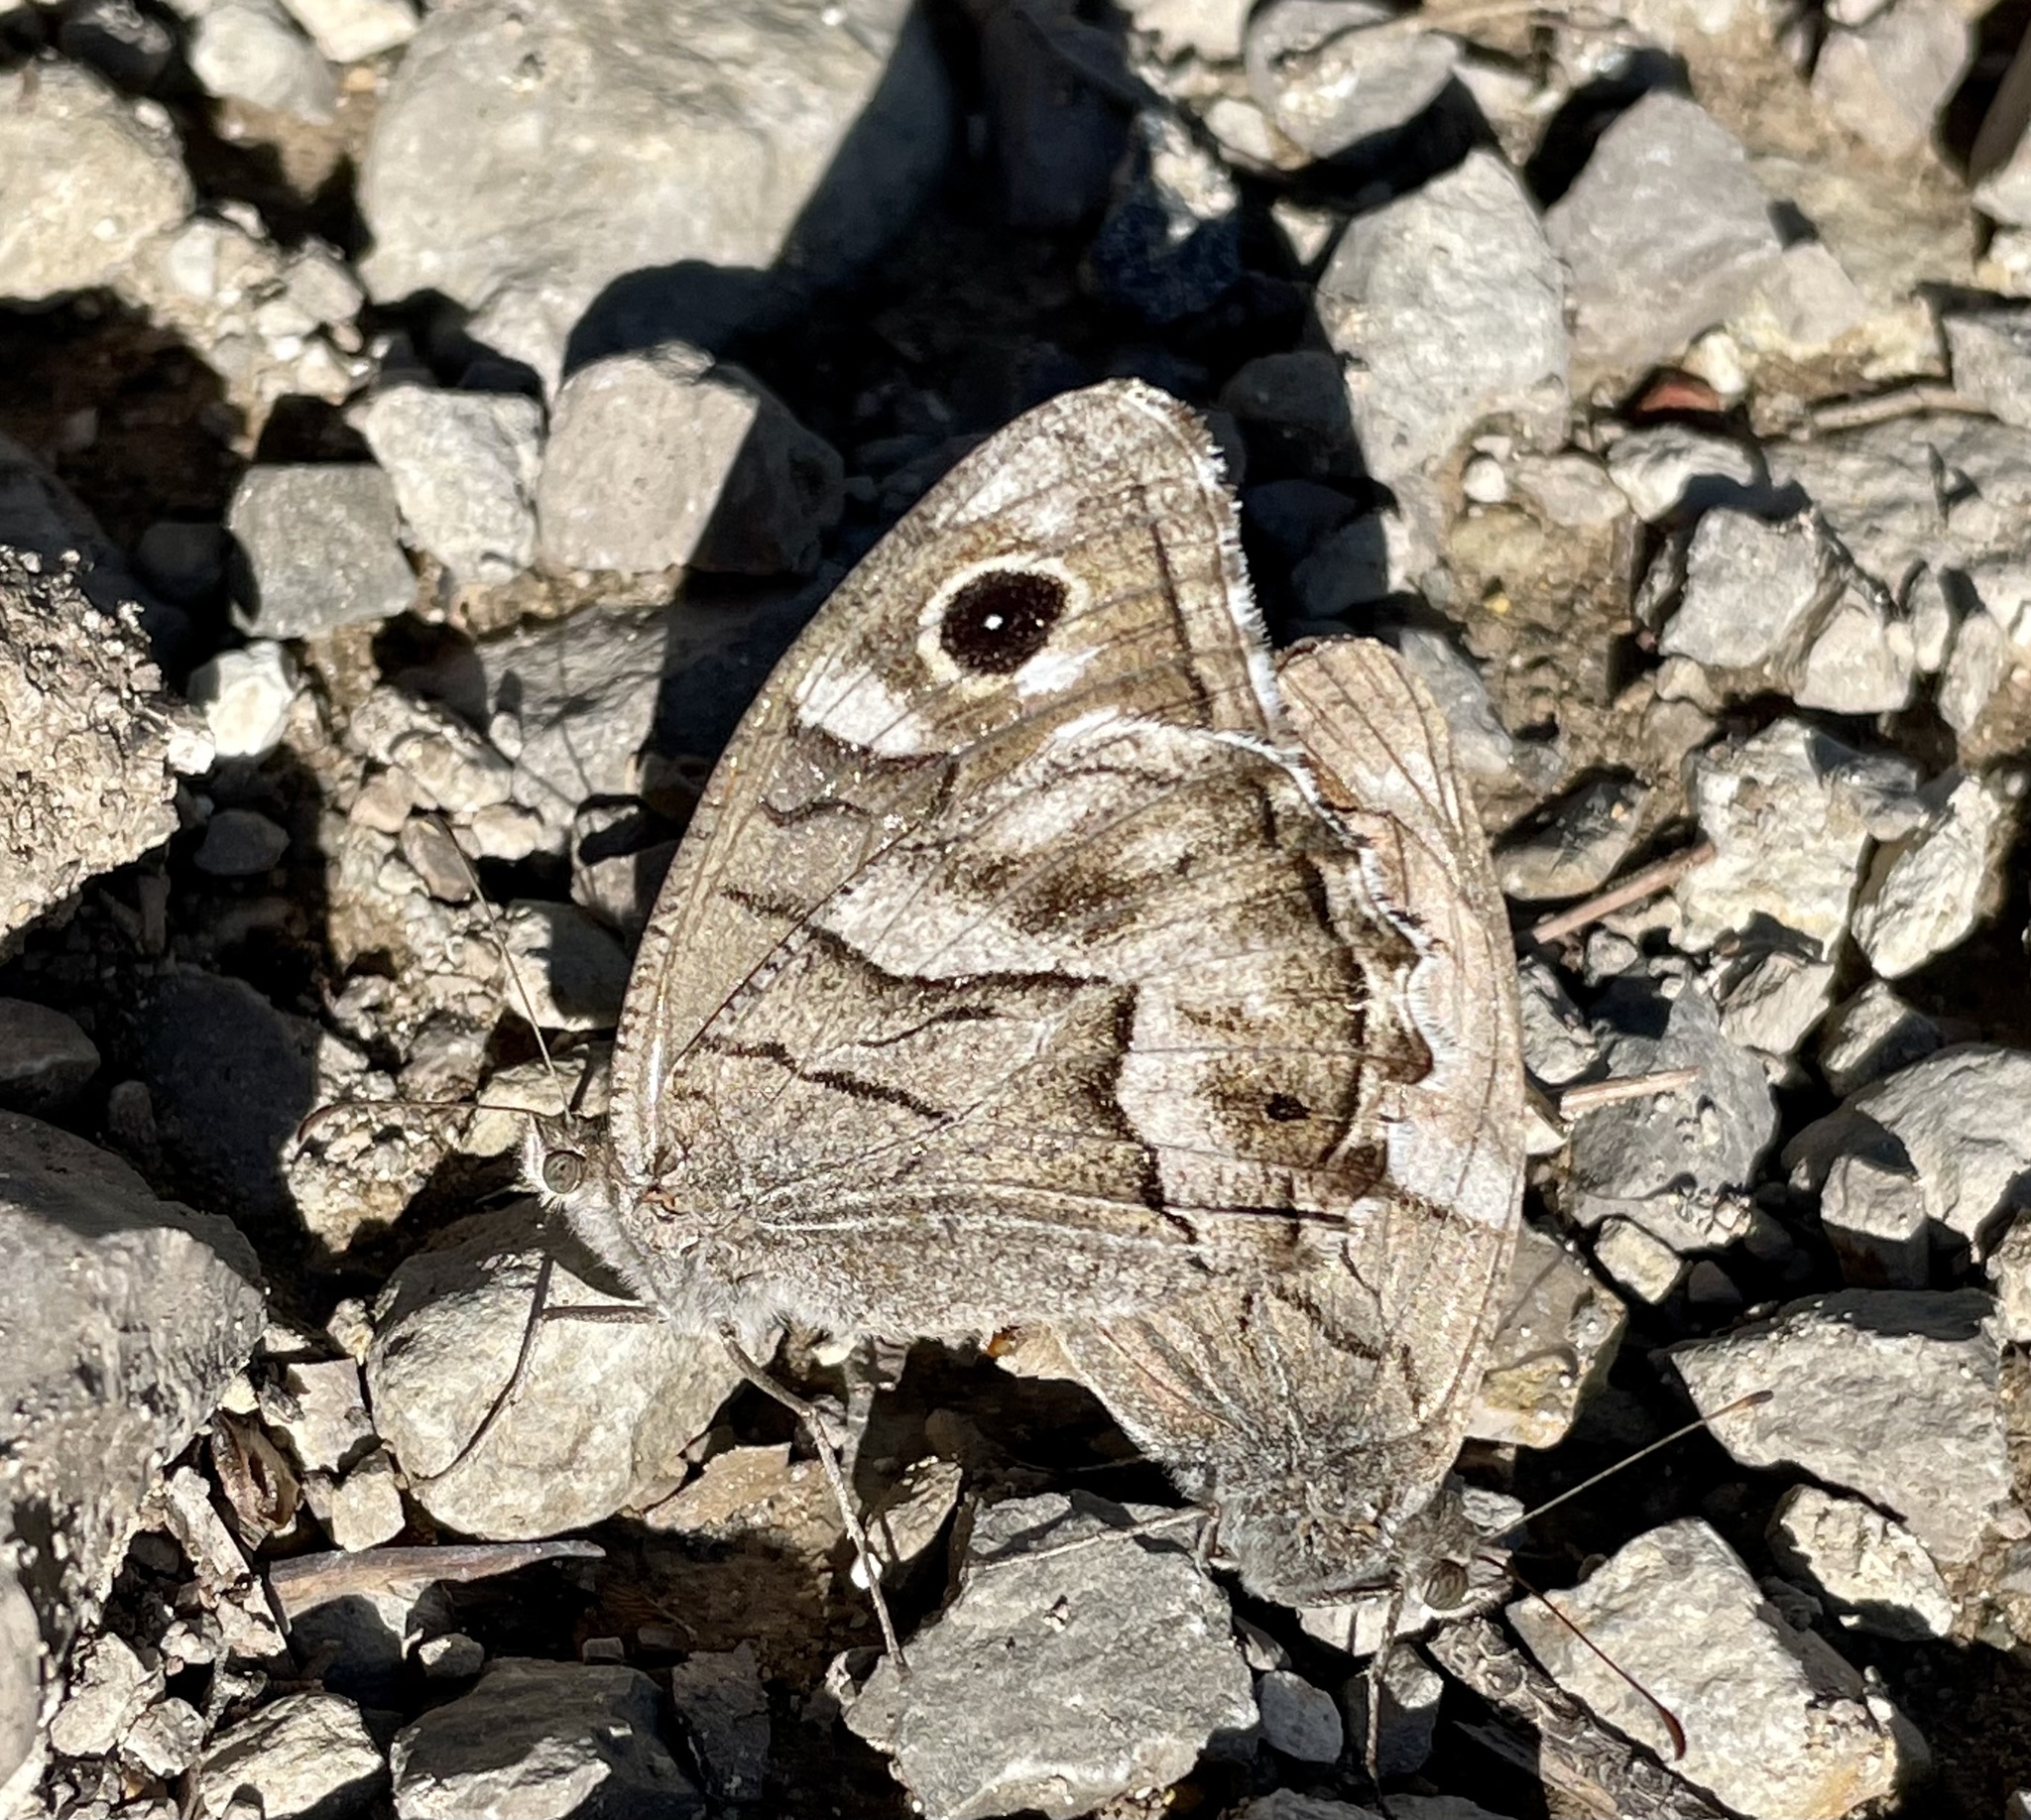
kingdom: Animalia
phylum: Arthropoda
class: Insecta
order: Lepidoptera
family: Nymphalidae
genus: Hipparchia
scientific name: Hipparchia fidia
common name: Striped grayling
